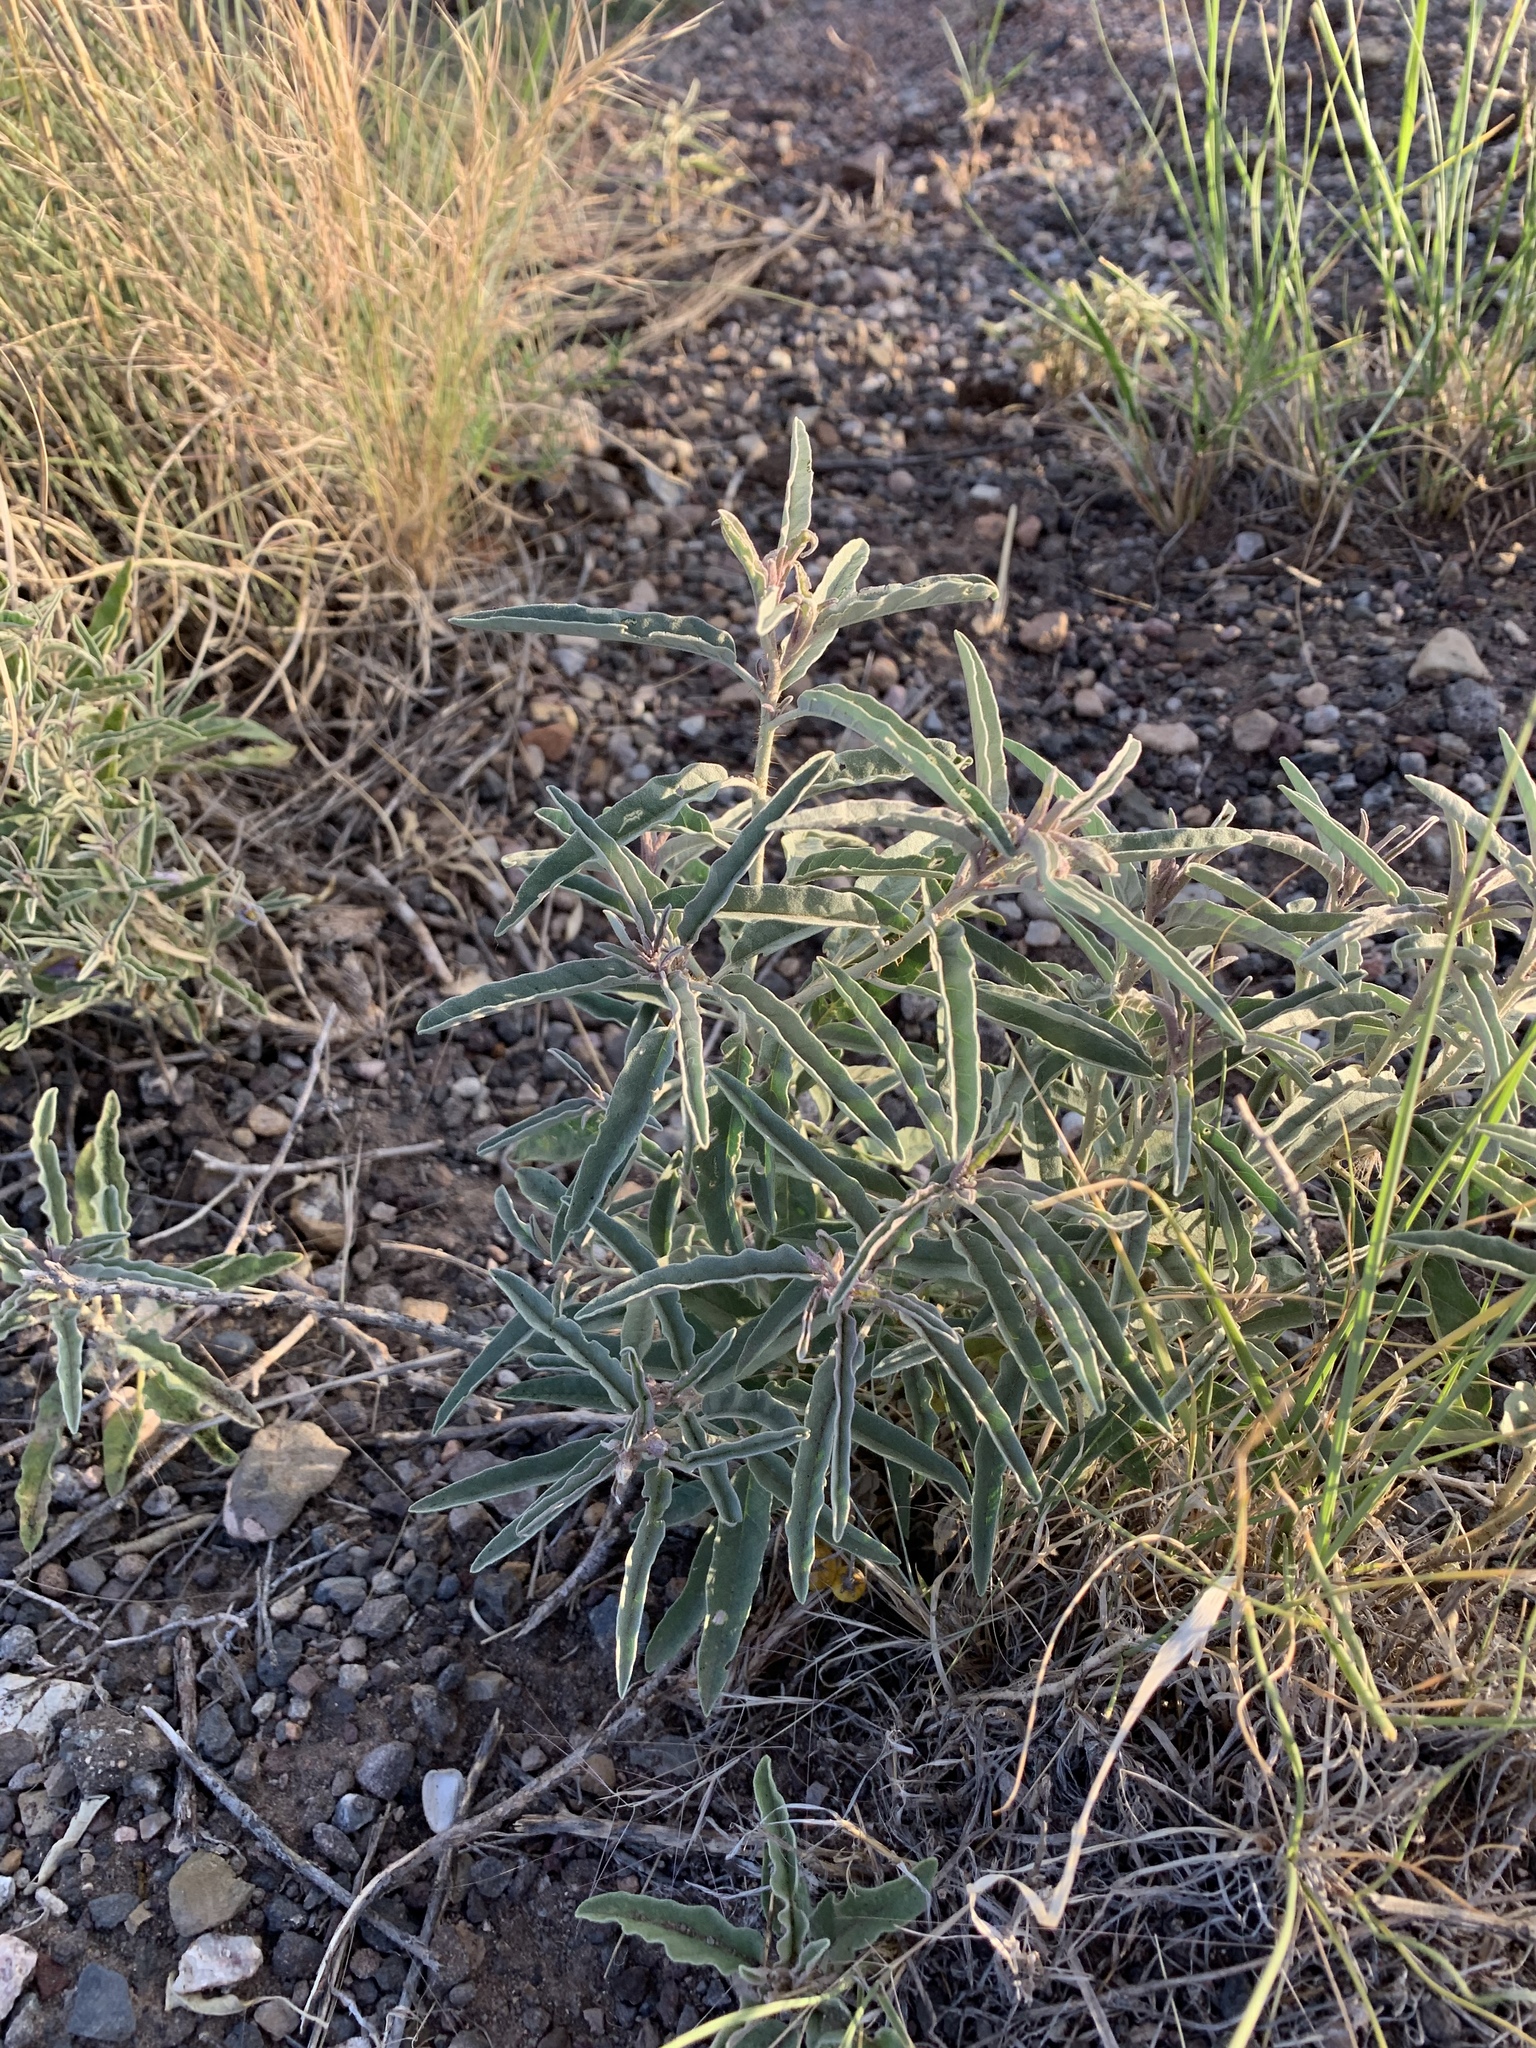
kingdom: Plantae
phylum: Tracheophyta
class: Magnoliopsida
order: Solanales
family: Solanaceae
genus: Solanum
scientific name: Solanum elaeagnifolium
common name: Silverleaf nightshade
